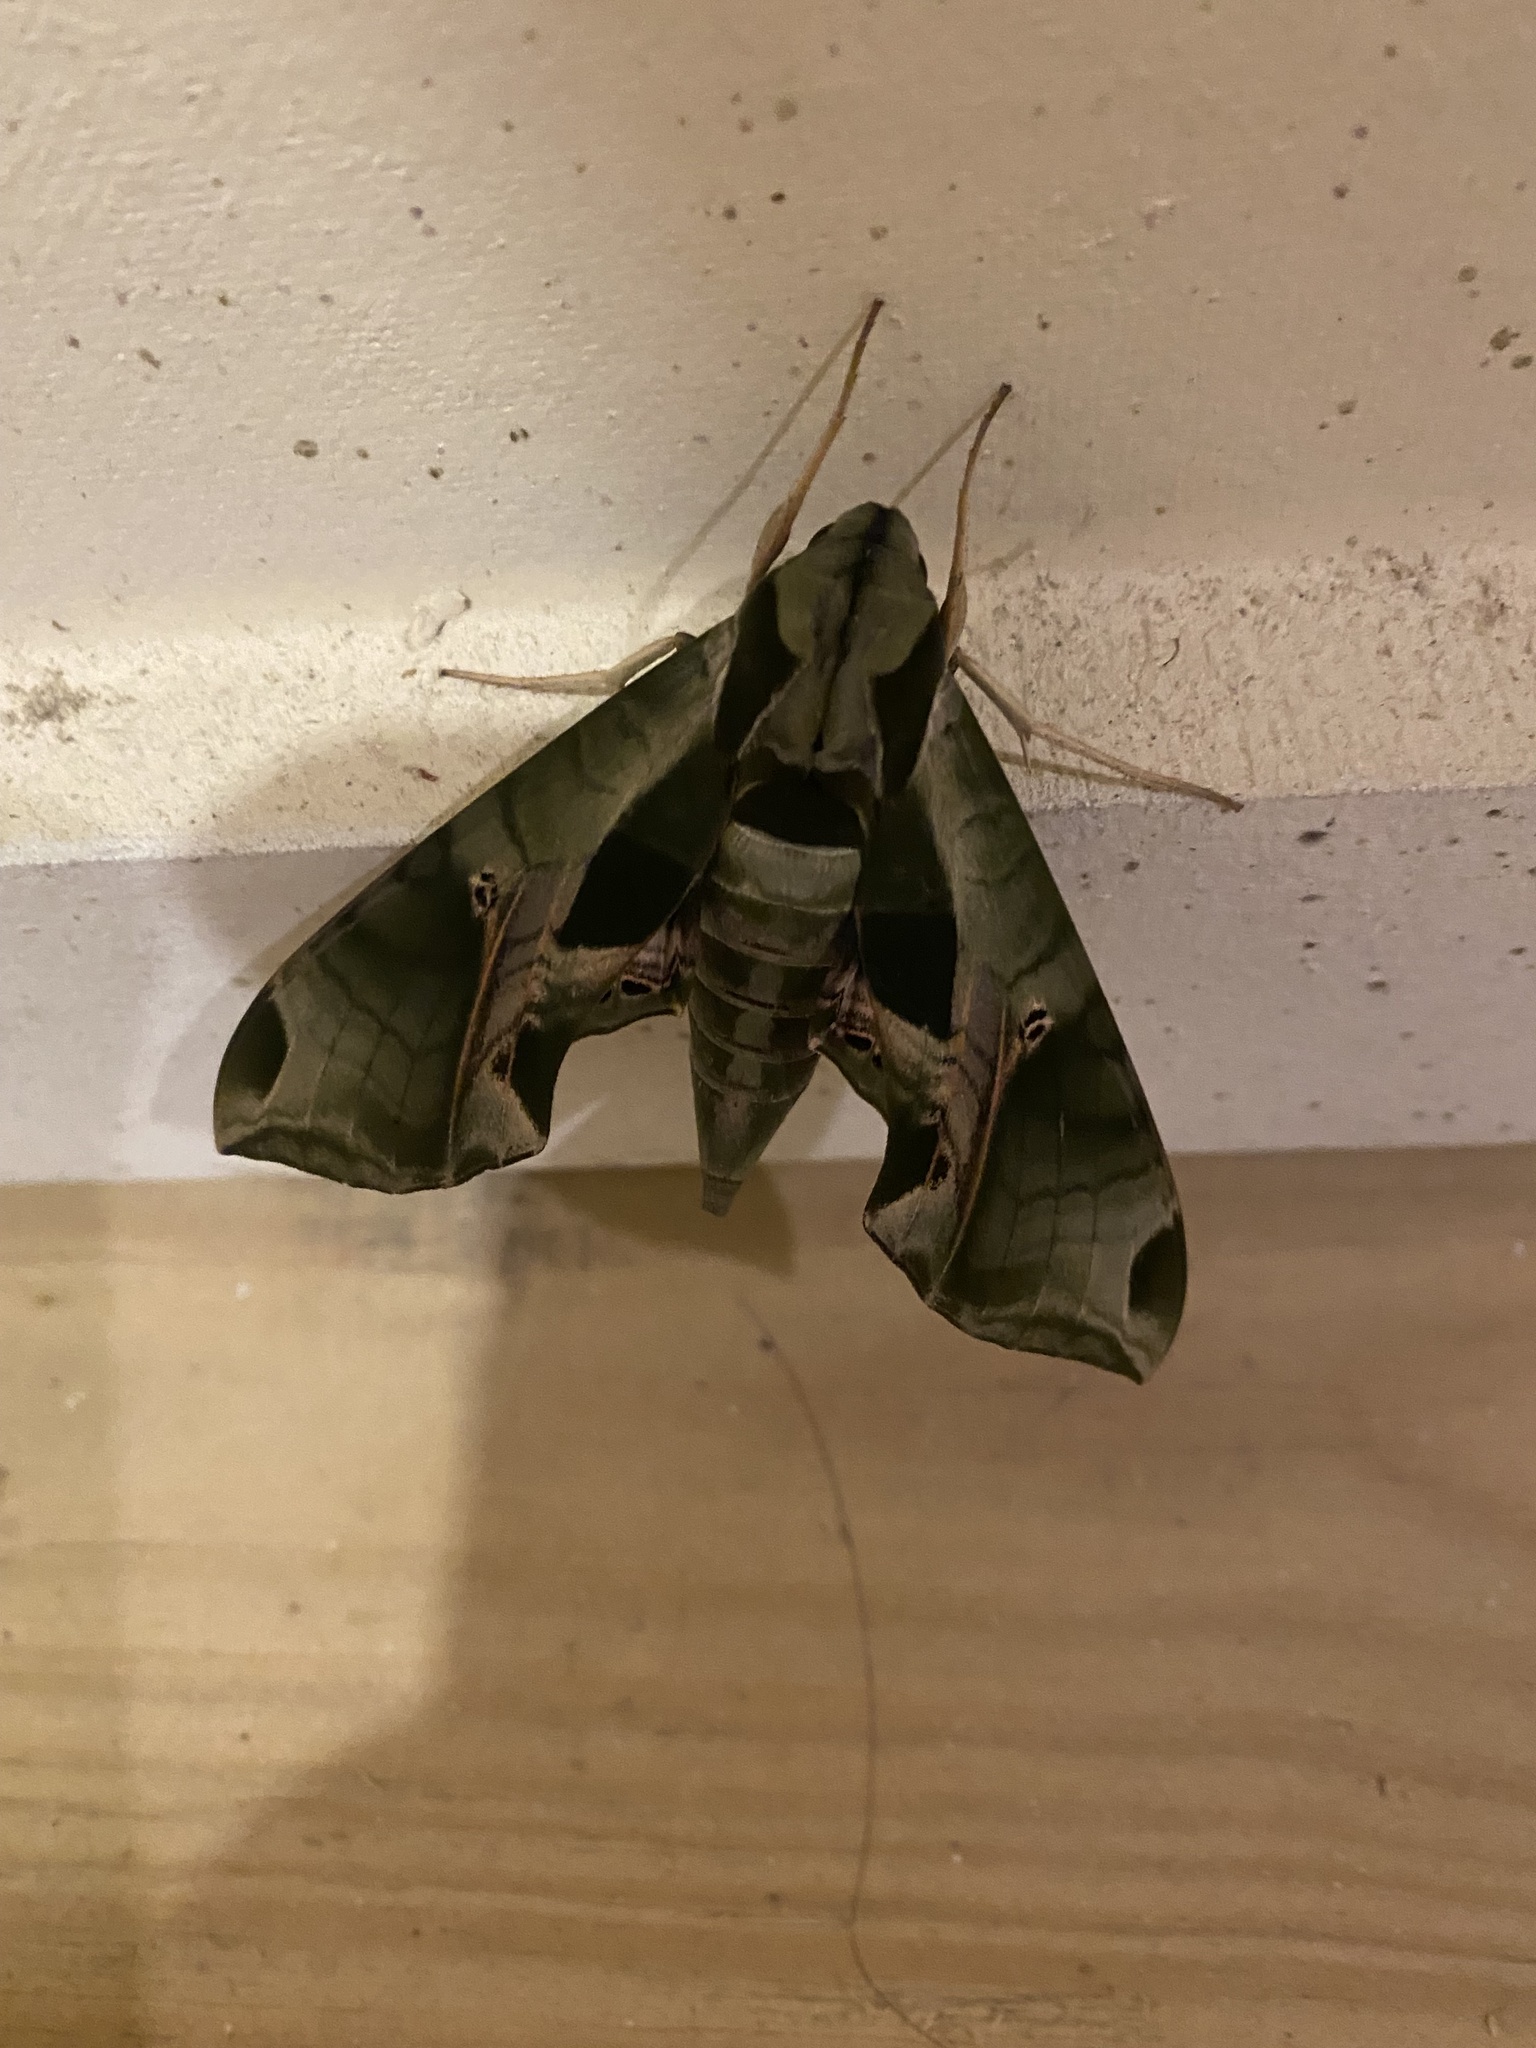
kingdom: Animalia
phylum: Arthropoda
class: Insecta
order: Lepidoptera
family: Sphingidae
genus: Eumorpha
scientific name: Eumorpha pandorus
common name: Pandora sphinx
